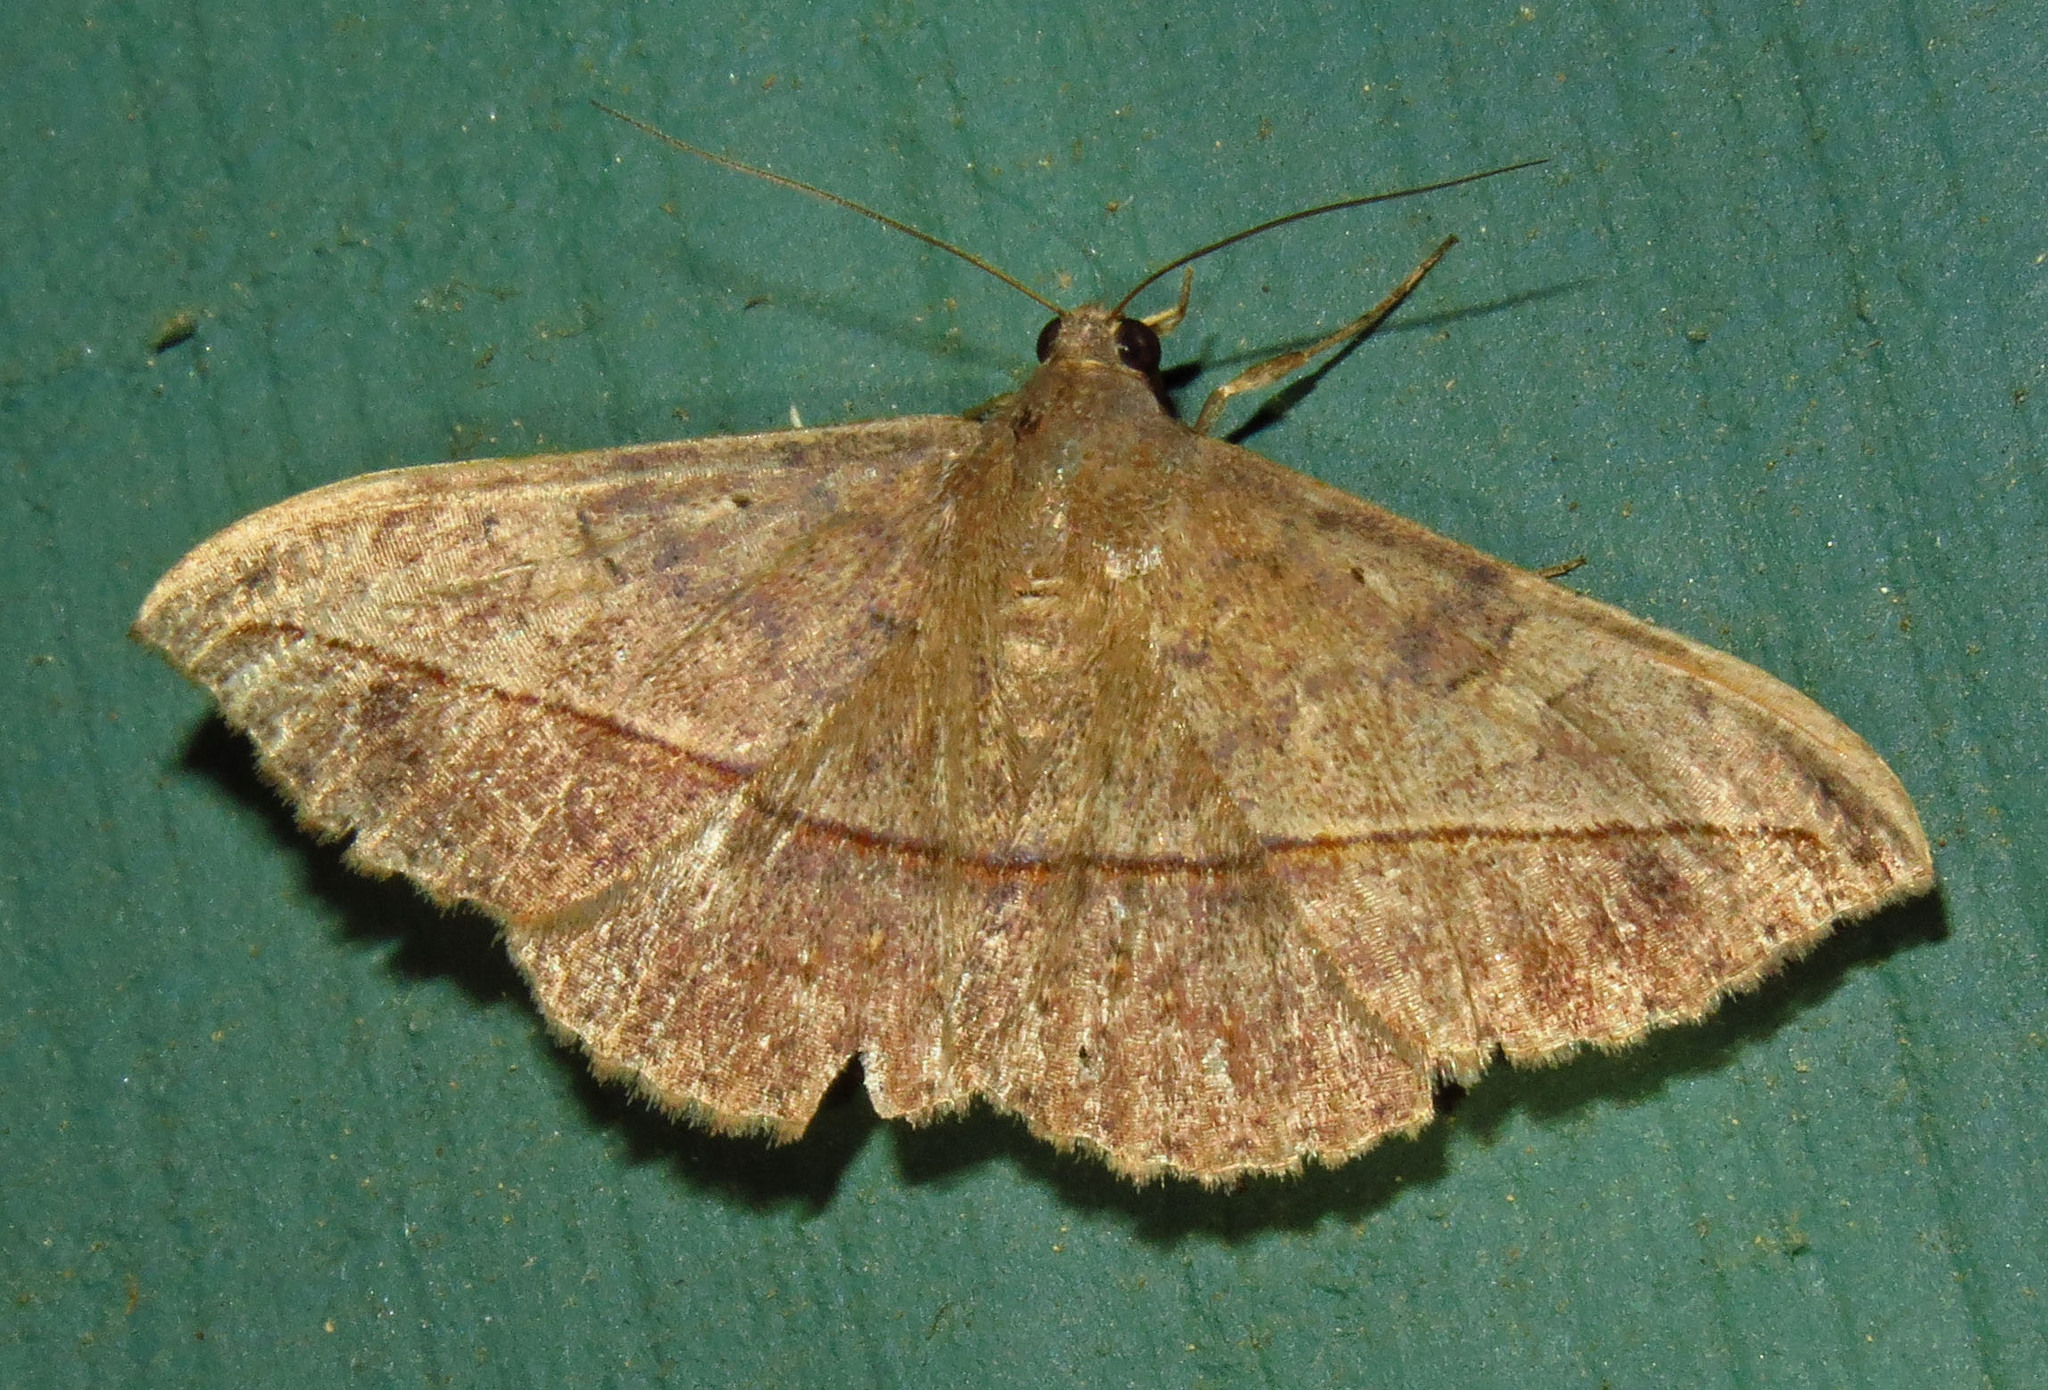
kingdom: Animalia
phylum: Arthropoda
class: Insecta
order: Lepidoptera
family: Erebidae
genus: Anticarsia
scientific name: Anticarsia gemmatalis
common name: Cutworm moth
